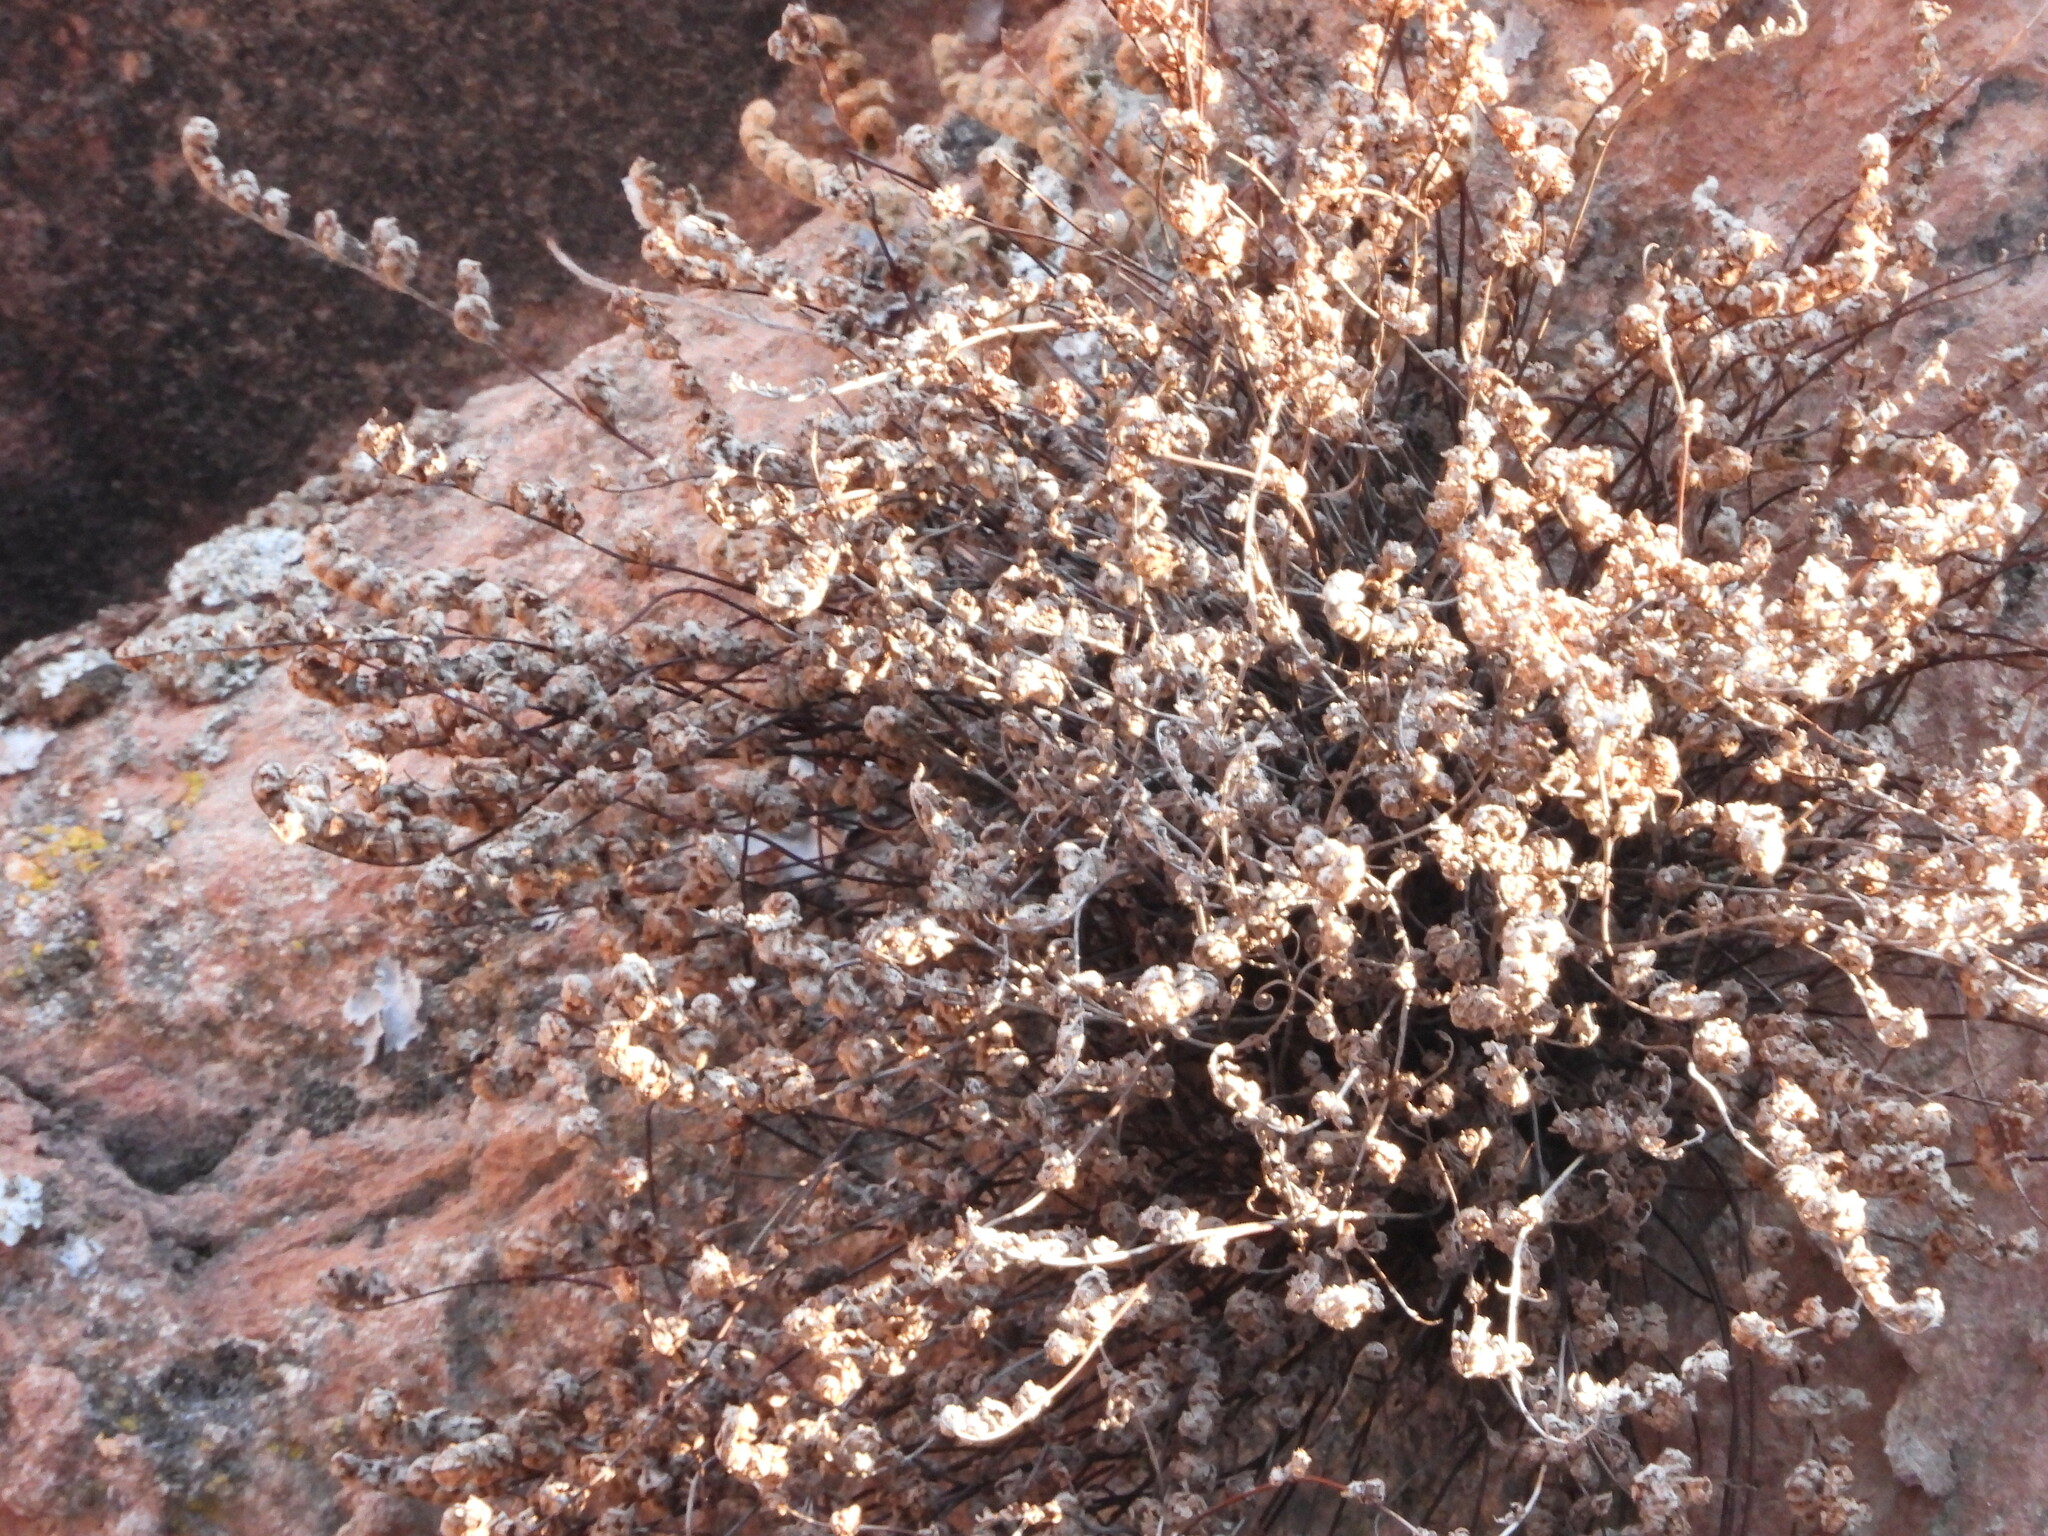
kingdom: Plantae
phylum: Tracheophyta
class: Polypodiopsida
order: Polypodiales
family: Pteridaceae
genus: Myriopteris
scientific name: Myriopteris gracilis
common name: Fee's lip fern
